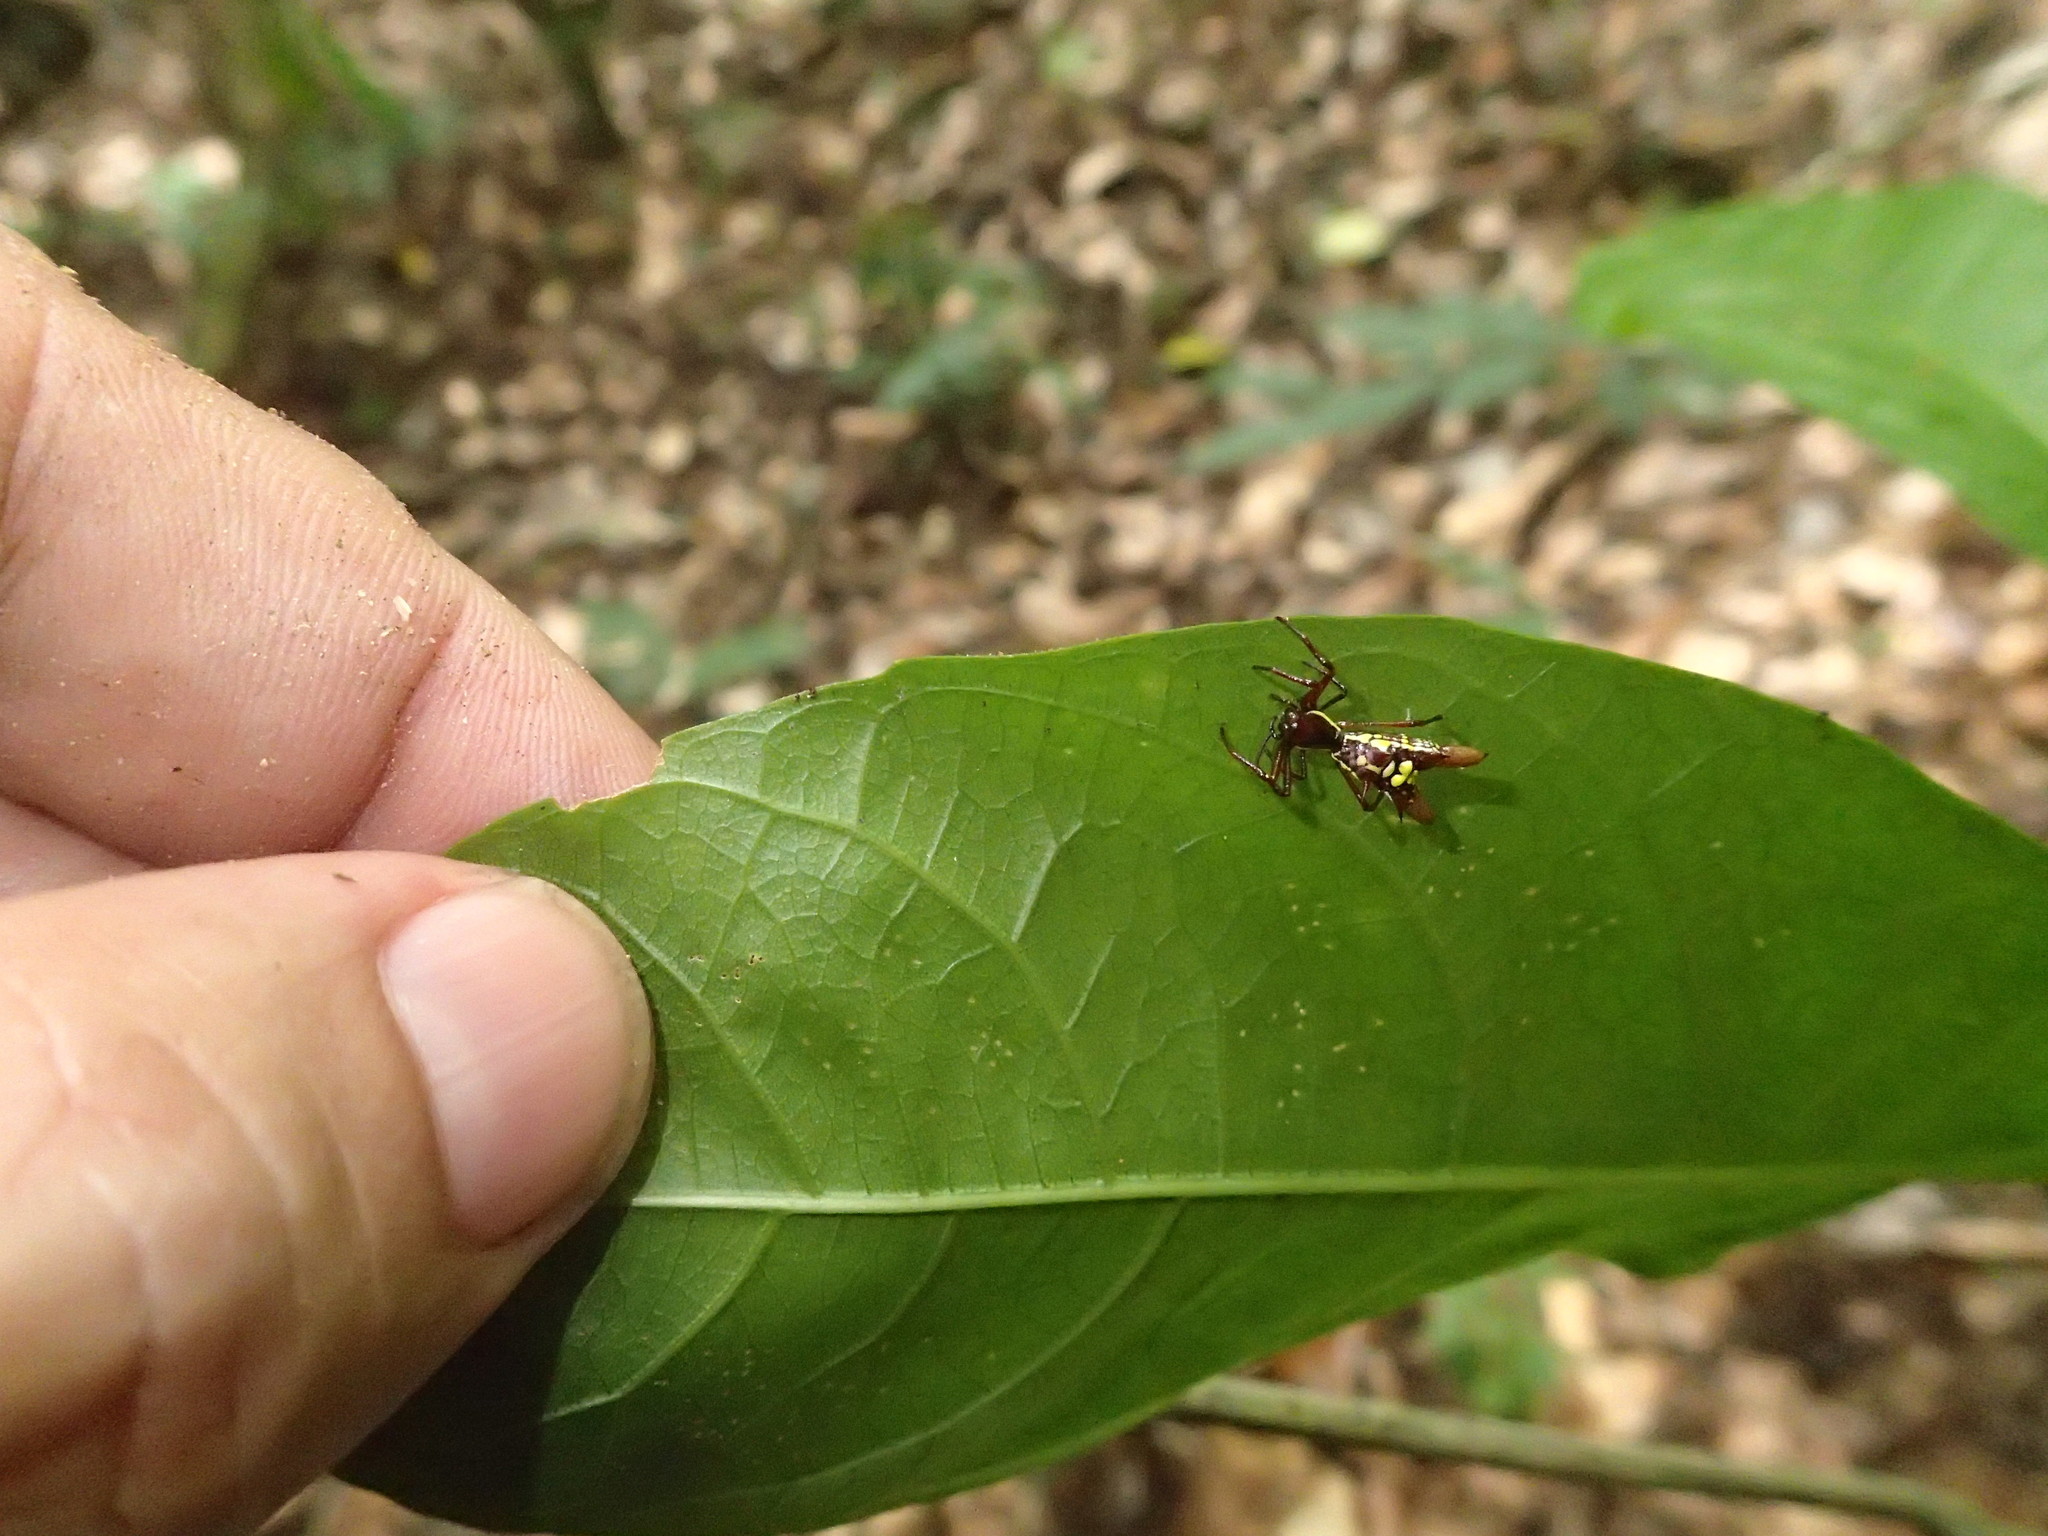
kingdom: Animalia
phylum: Arthropoda
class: Arachnida
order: Araneae
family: Araneidae
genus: Micrathena
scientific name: Micrathena sexspinosa
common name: Orb weavers
